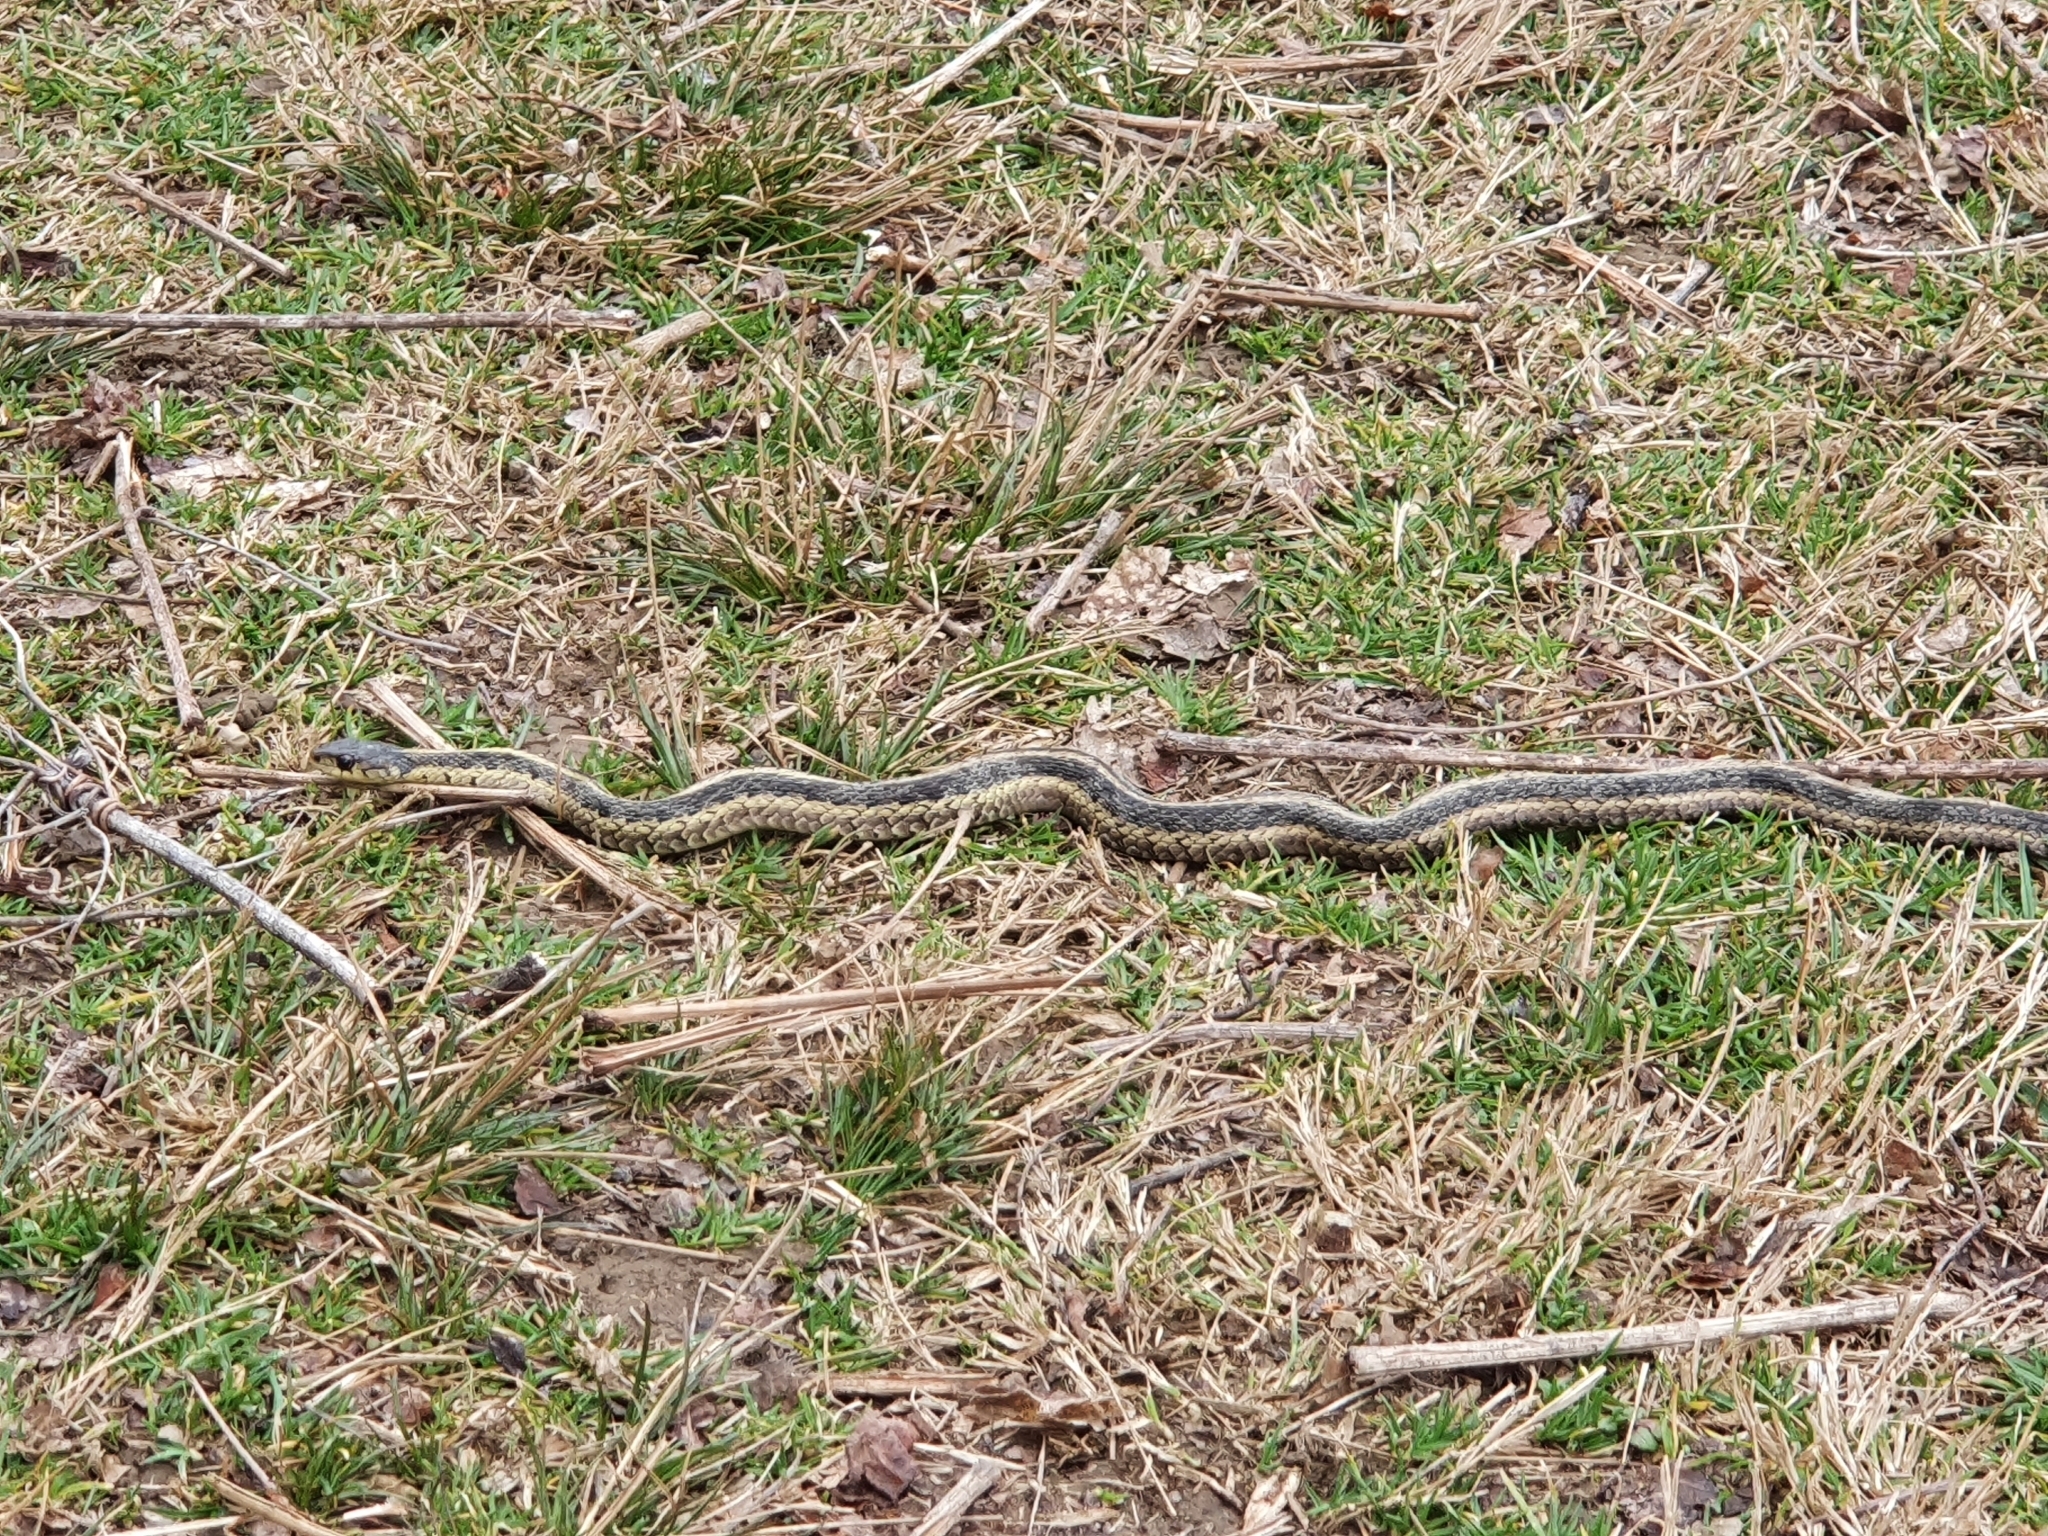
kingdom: Animalia
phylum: Chordata
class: Squamata
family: Colubridae
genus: Thamnophis
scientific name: Thamnophis sirtalis
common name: Common garter snake
